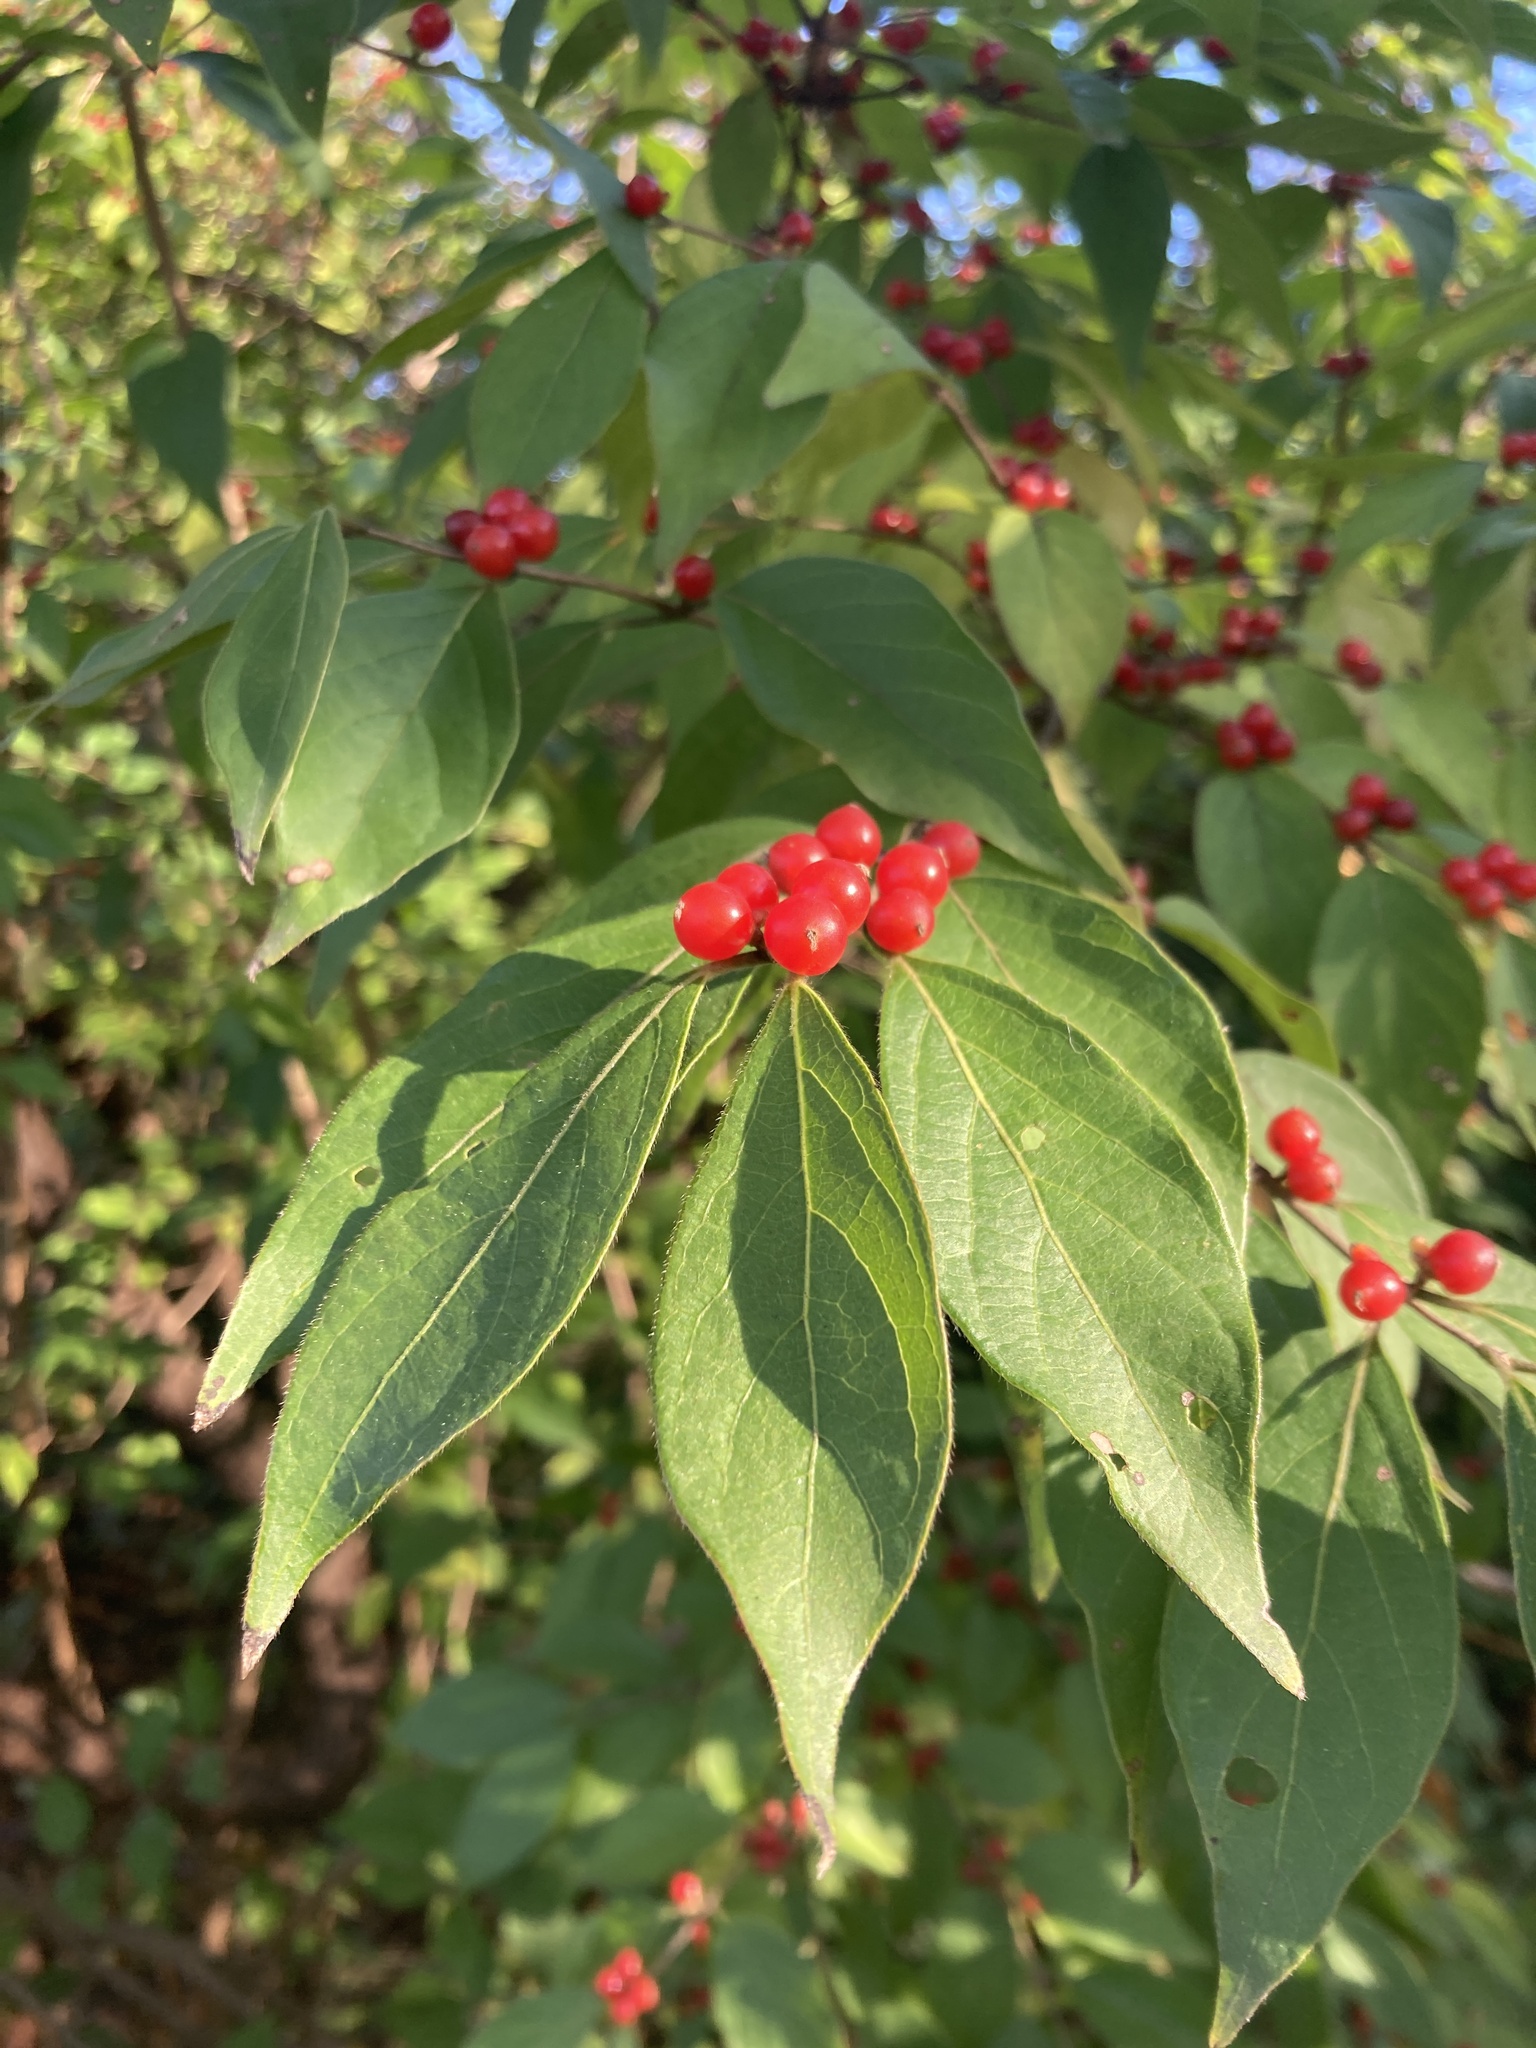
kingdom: Plantae
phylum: Tracheophyta
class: Magnoliopsida
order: Dipsacales
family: Caprifoliaceae
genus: Lonicera
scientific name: Lonicera maackii
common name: Amur honeysuckle
